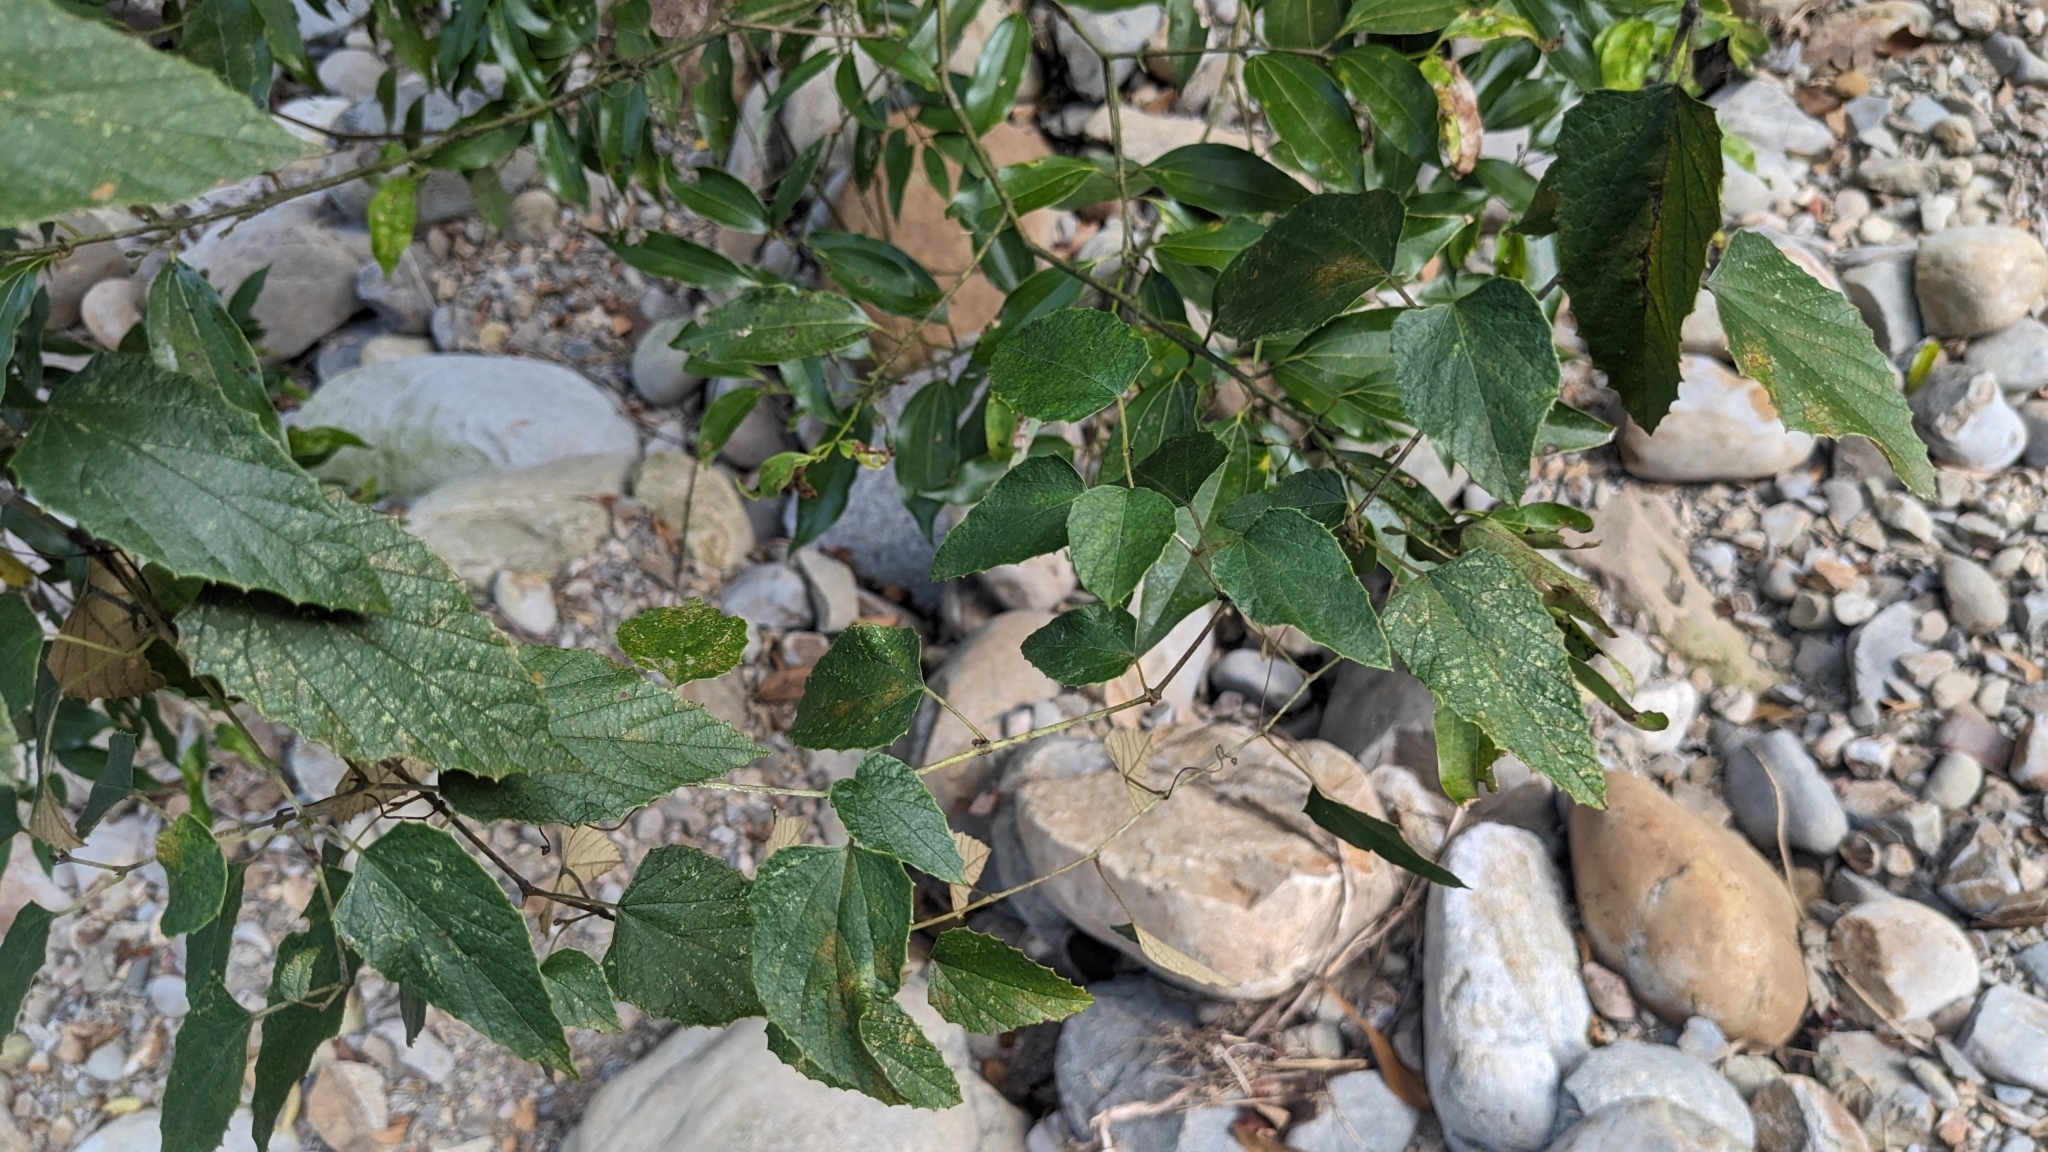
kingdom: Plantae
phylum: Tracheophyta
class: Magnoliopsida
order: Vitales
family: Vitaceae
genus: Vitis
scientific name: Vitis heyneana
